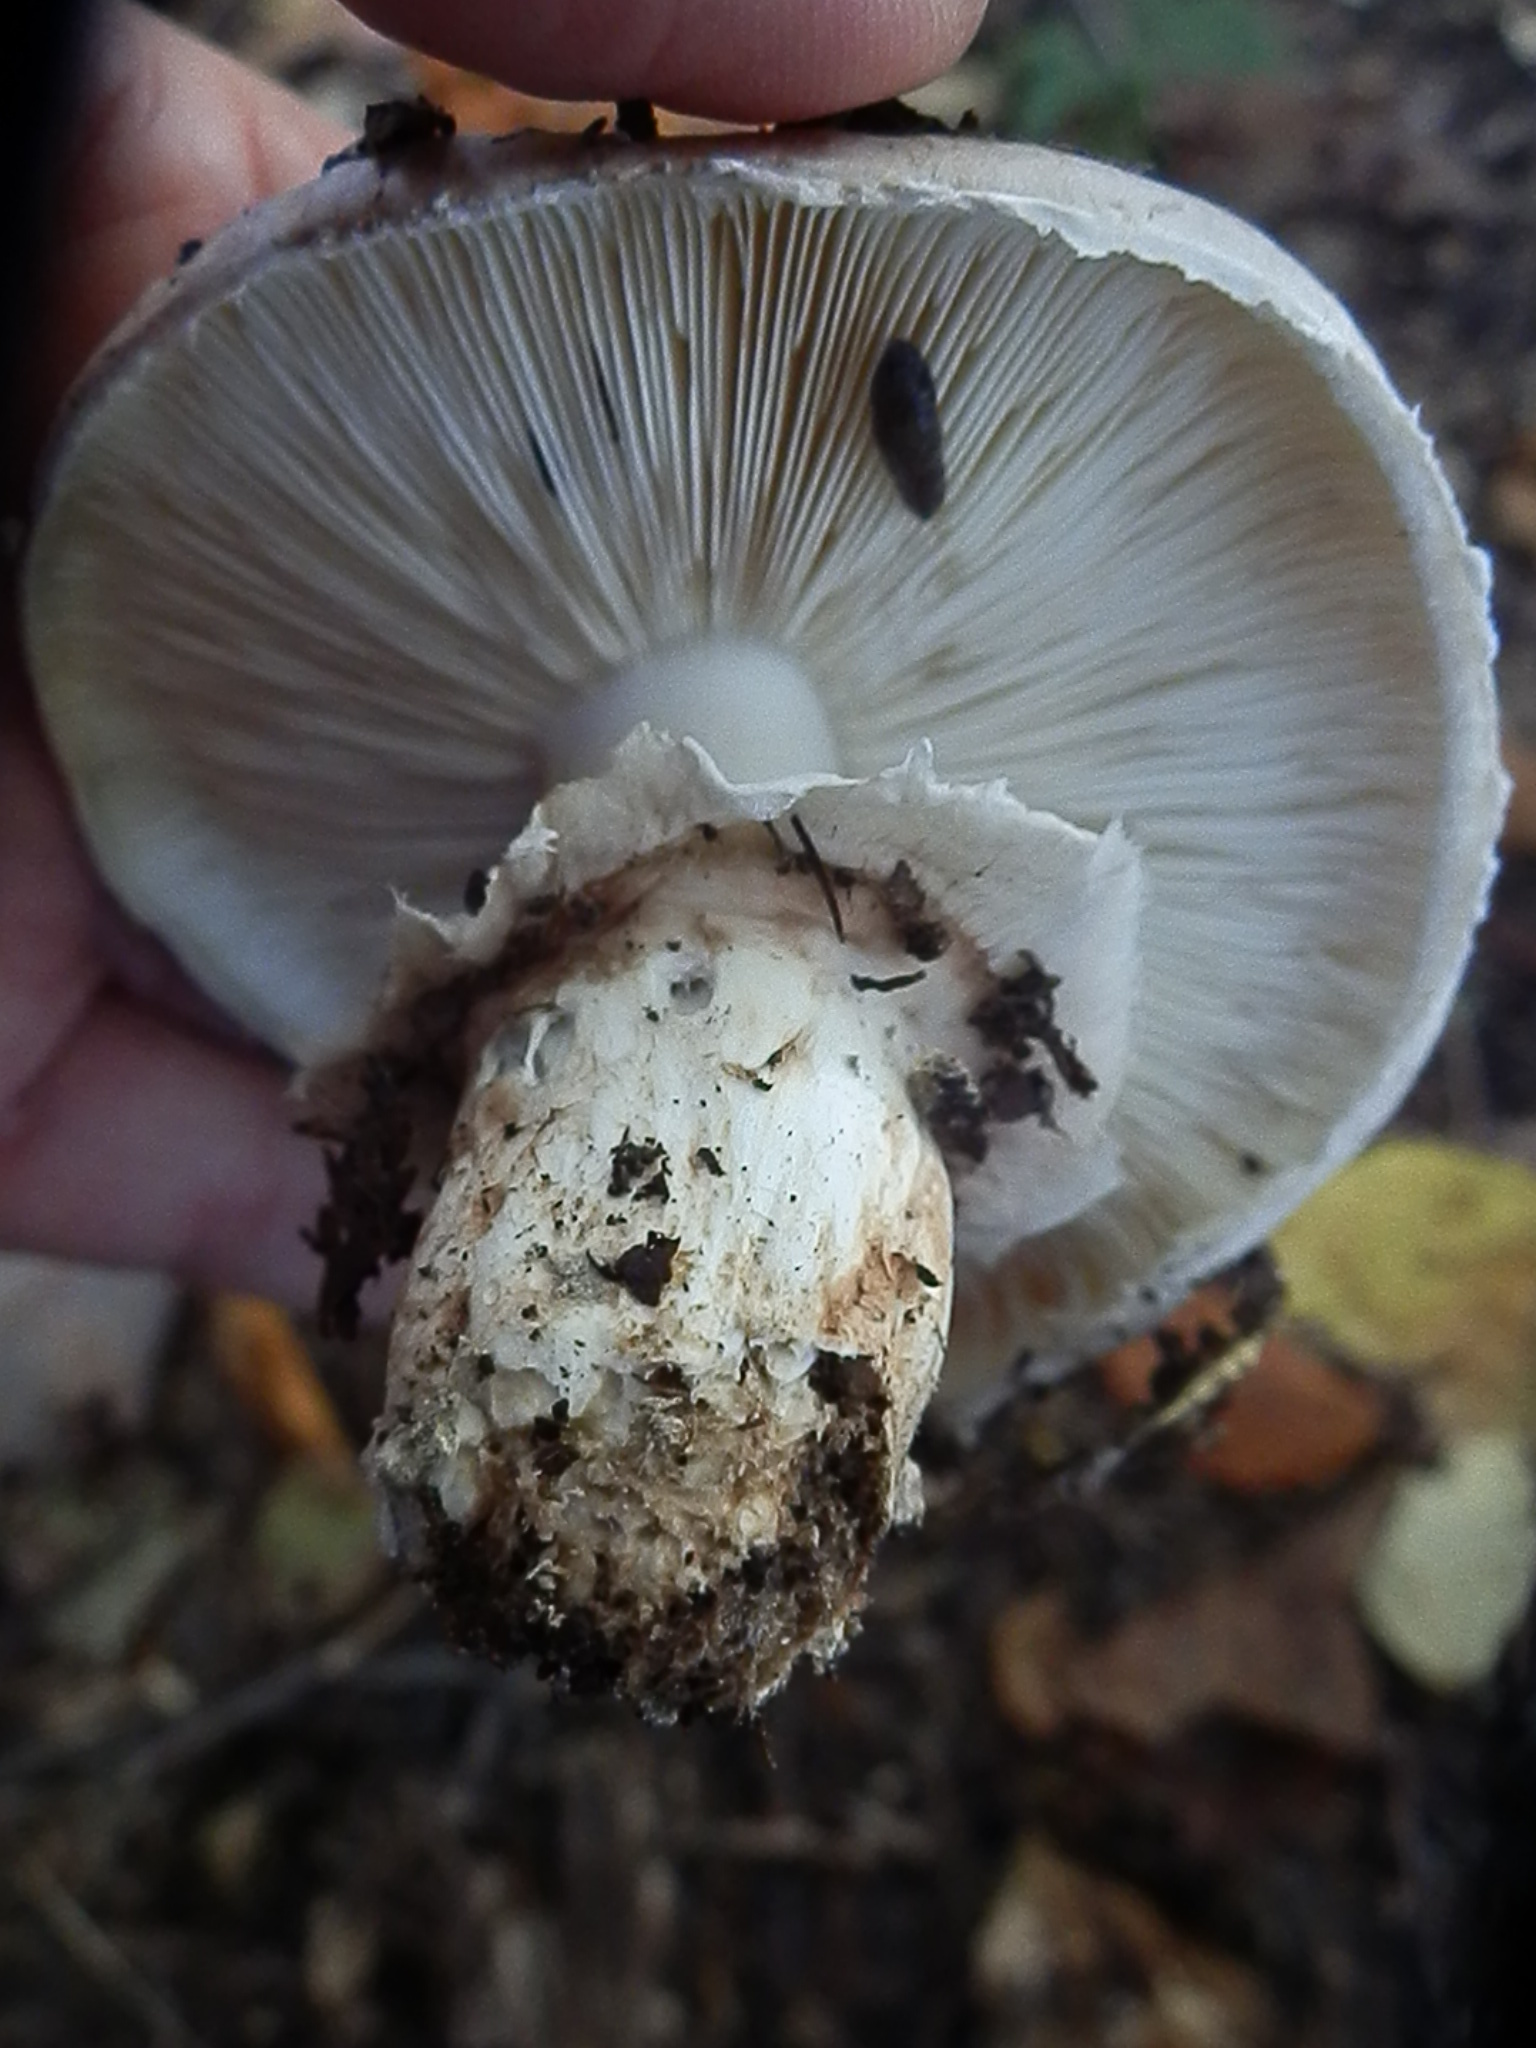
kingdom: Fungi
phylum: Basidiomycota
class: Agaricomycetes
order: Agaricales
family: Tricholomataceae
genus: Tricholoma
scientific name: Tricholoma caligatum
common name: True booted knight
